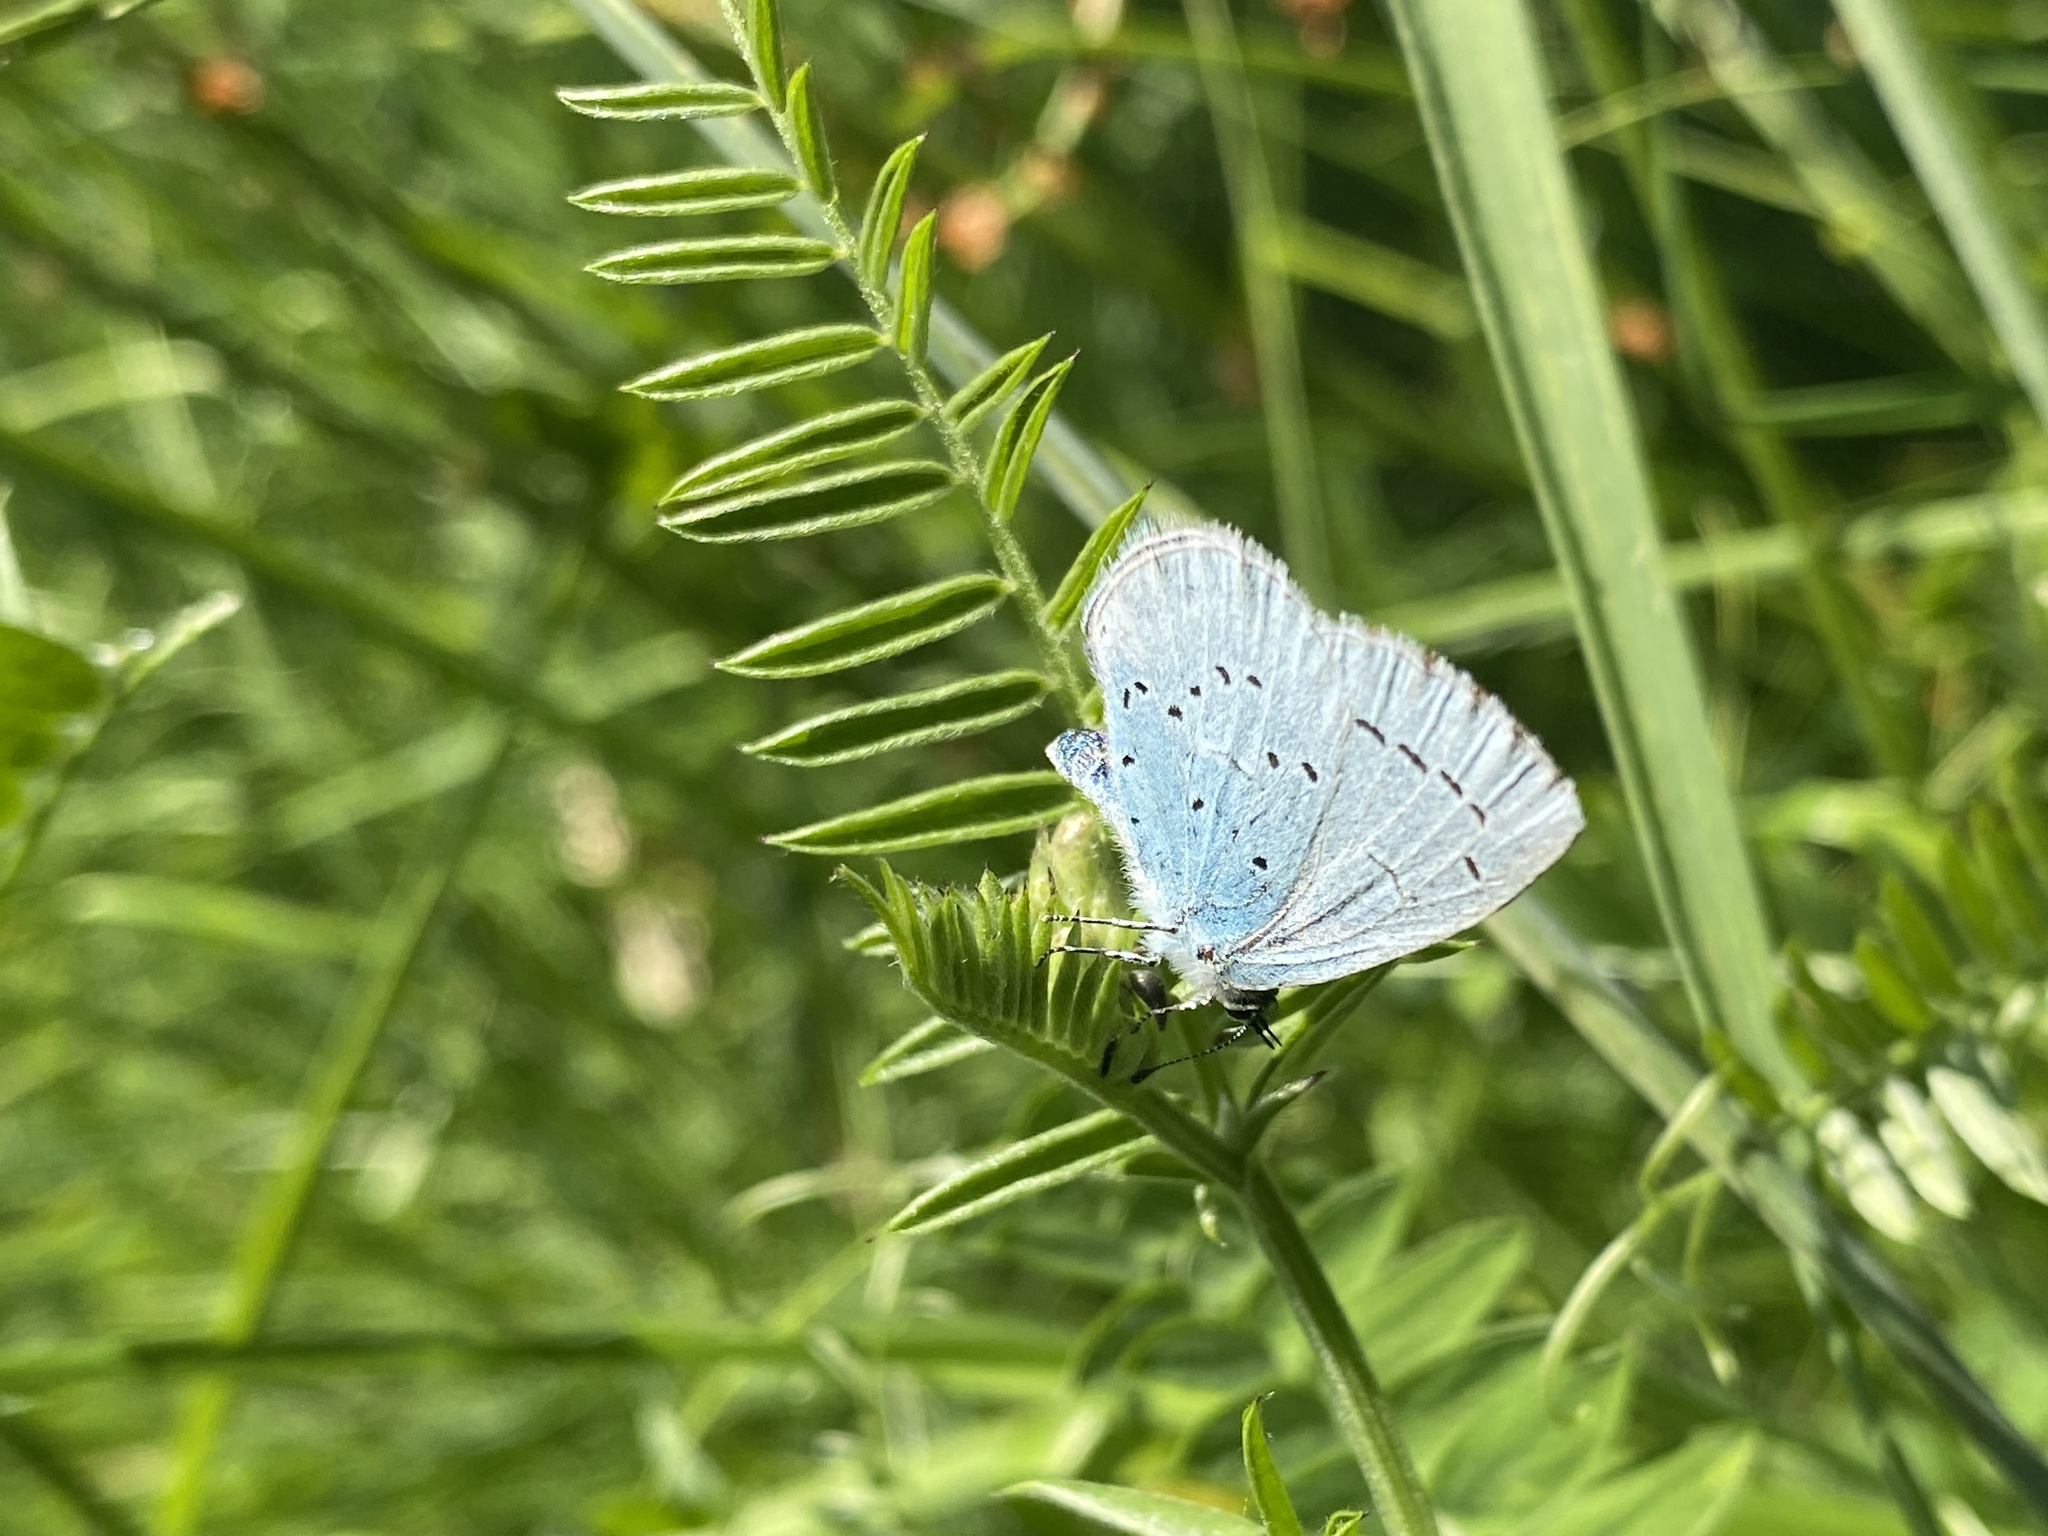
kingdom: Animalia
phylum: Arthropoda
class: Insecta
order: Lepidoptera
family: Lycaenidae
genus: Celastrina
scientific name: Celastrina argiolus
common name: Holly blue
